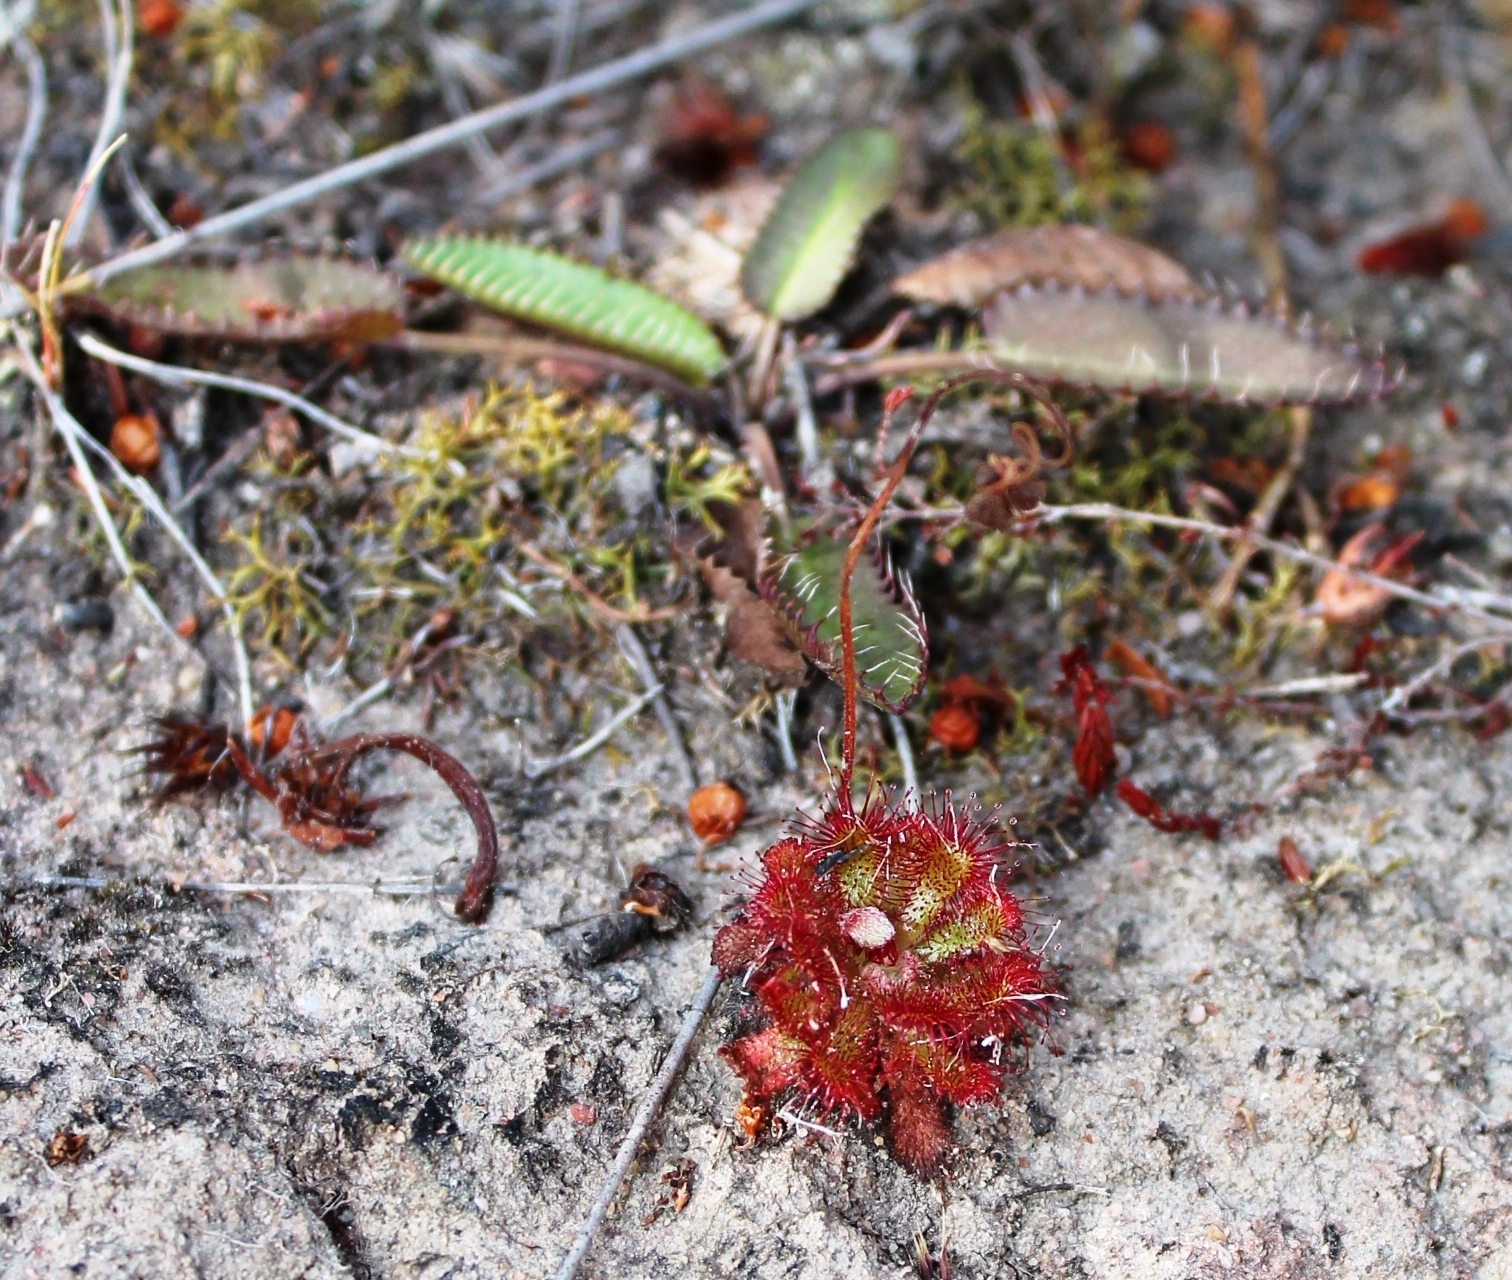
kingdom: Plantae
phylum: Tracheophyta
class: Magnoliopsida
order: Caryophyllales
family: Droseraceae
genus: Drosera
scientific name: Drosera aliciae
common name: Alice sundew
